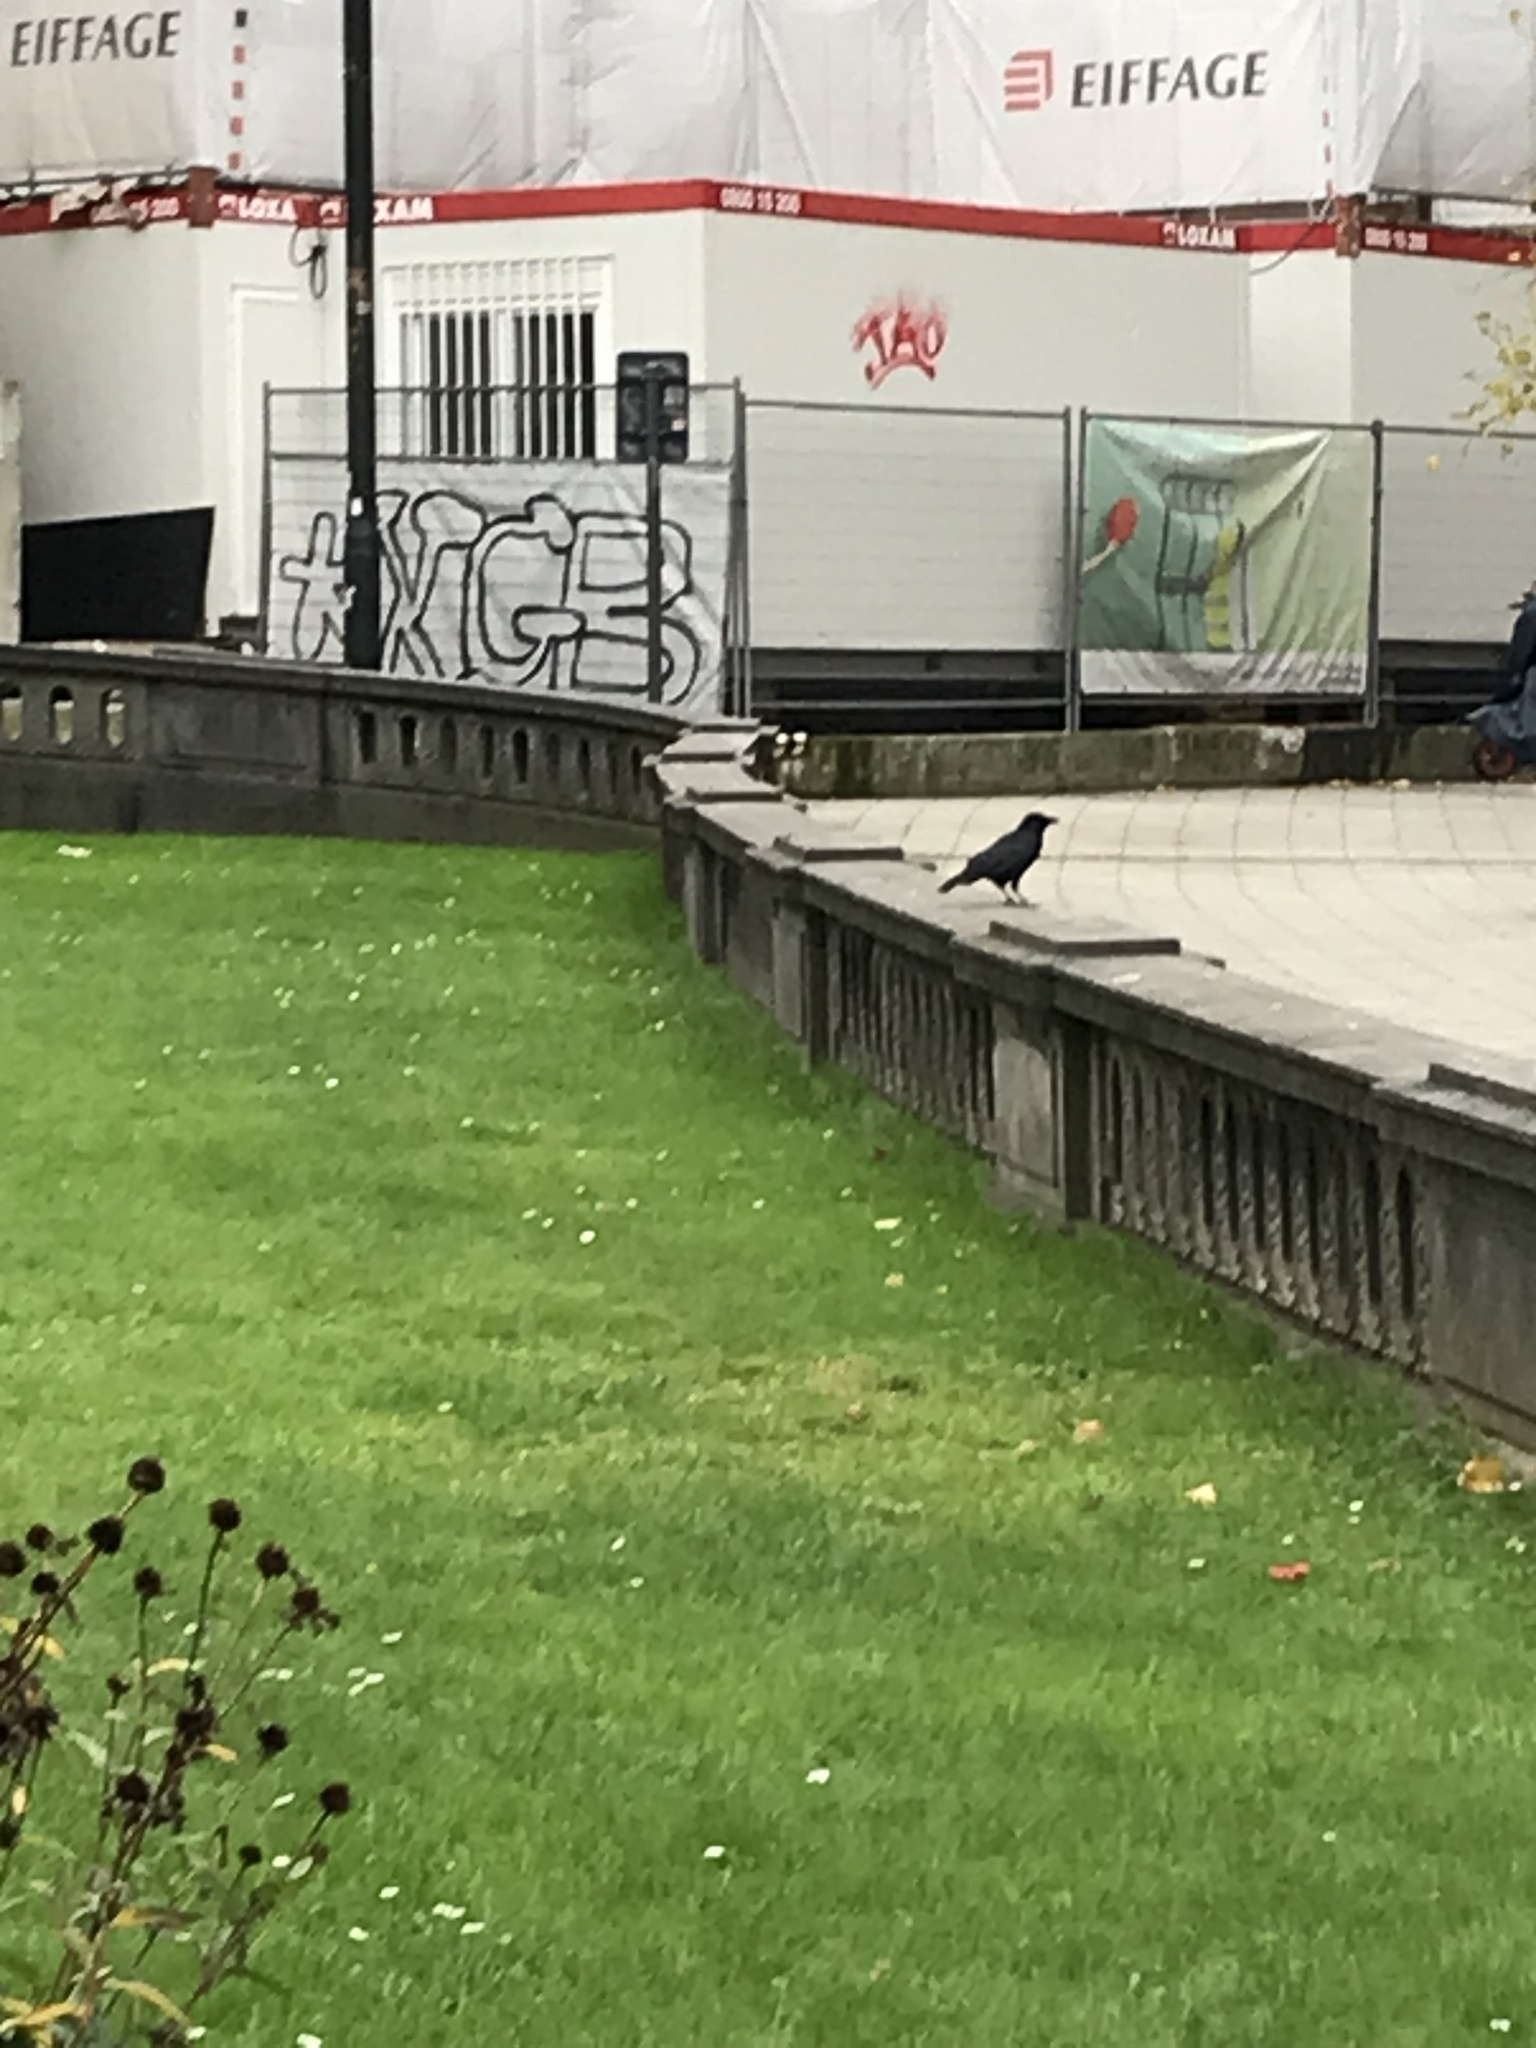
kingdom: Animalia
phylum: Chordata
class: Aves
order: Passeriformes
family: Corvidae
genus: Corvus
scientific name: Corvus corone
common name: Carrion crow
